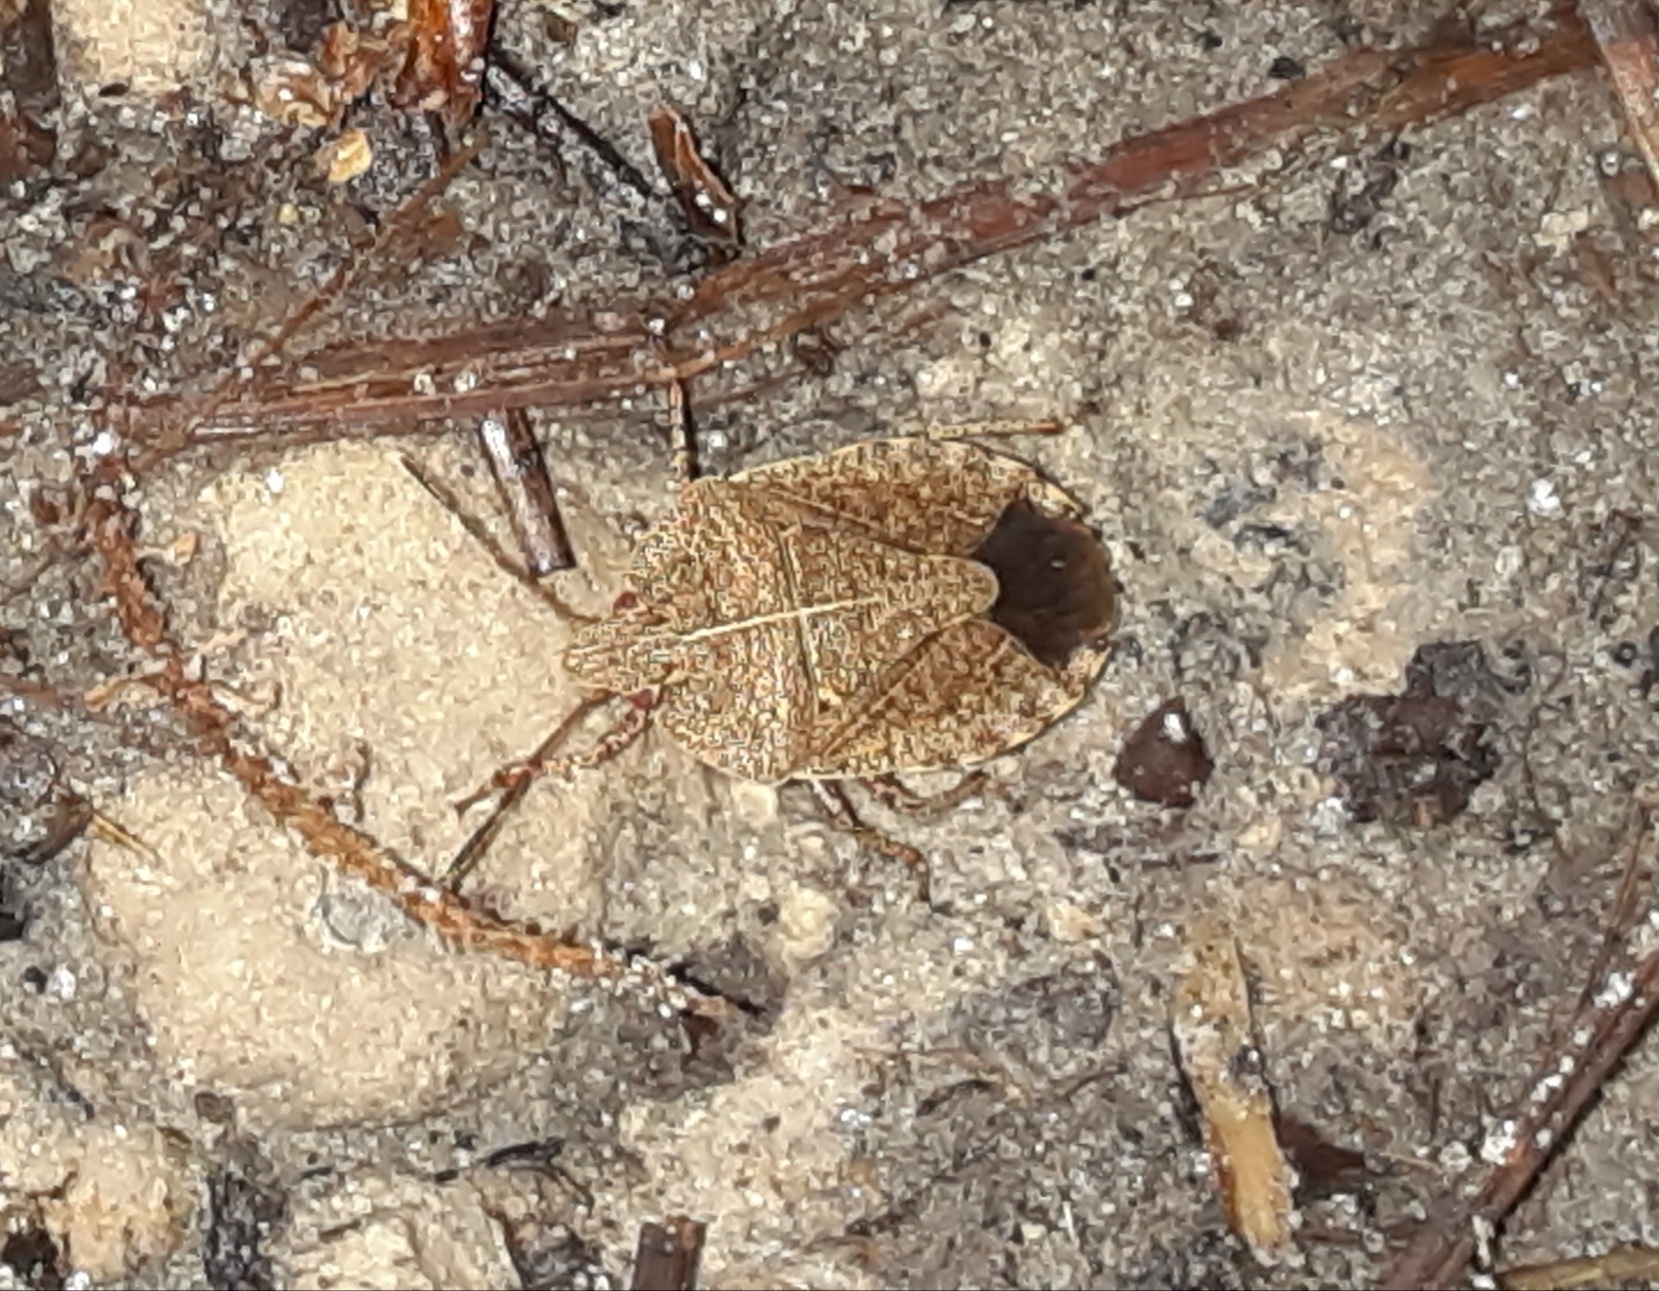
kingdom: Animalia
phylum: Arthropoda
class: Insecta
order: Hemiptera
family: Pentatomidae
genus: Menecles
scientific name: Menecles insertus
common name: Elf shoe stink bug
